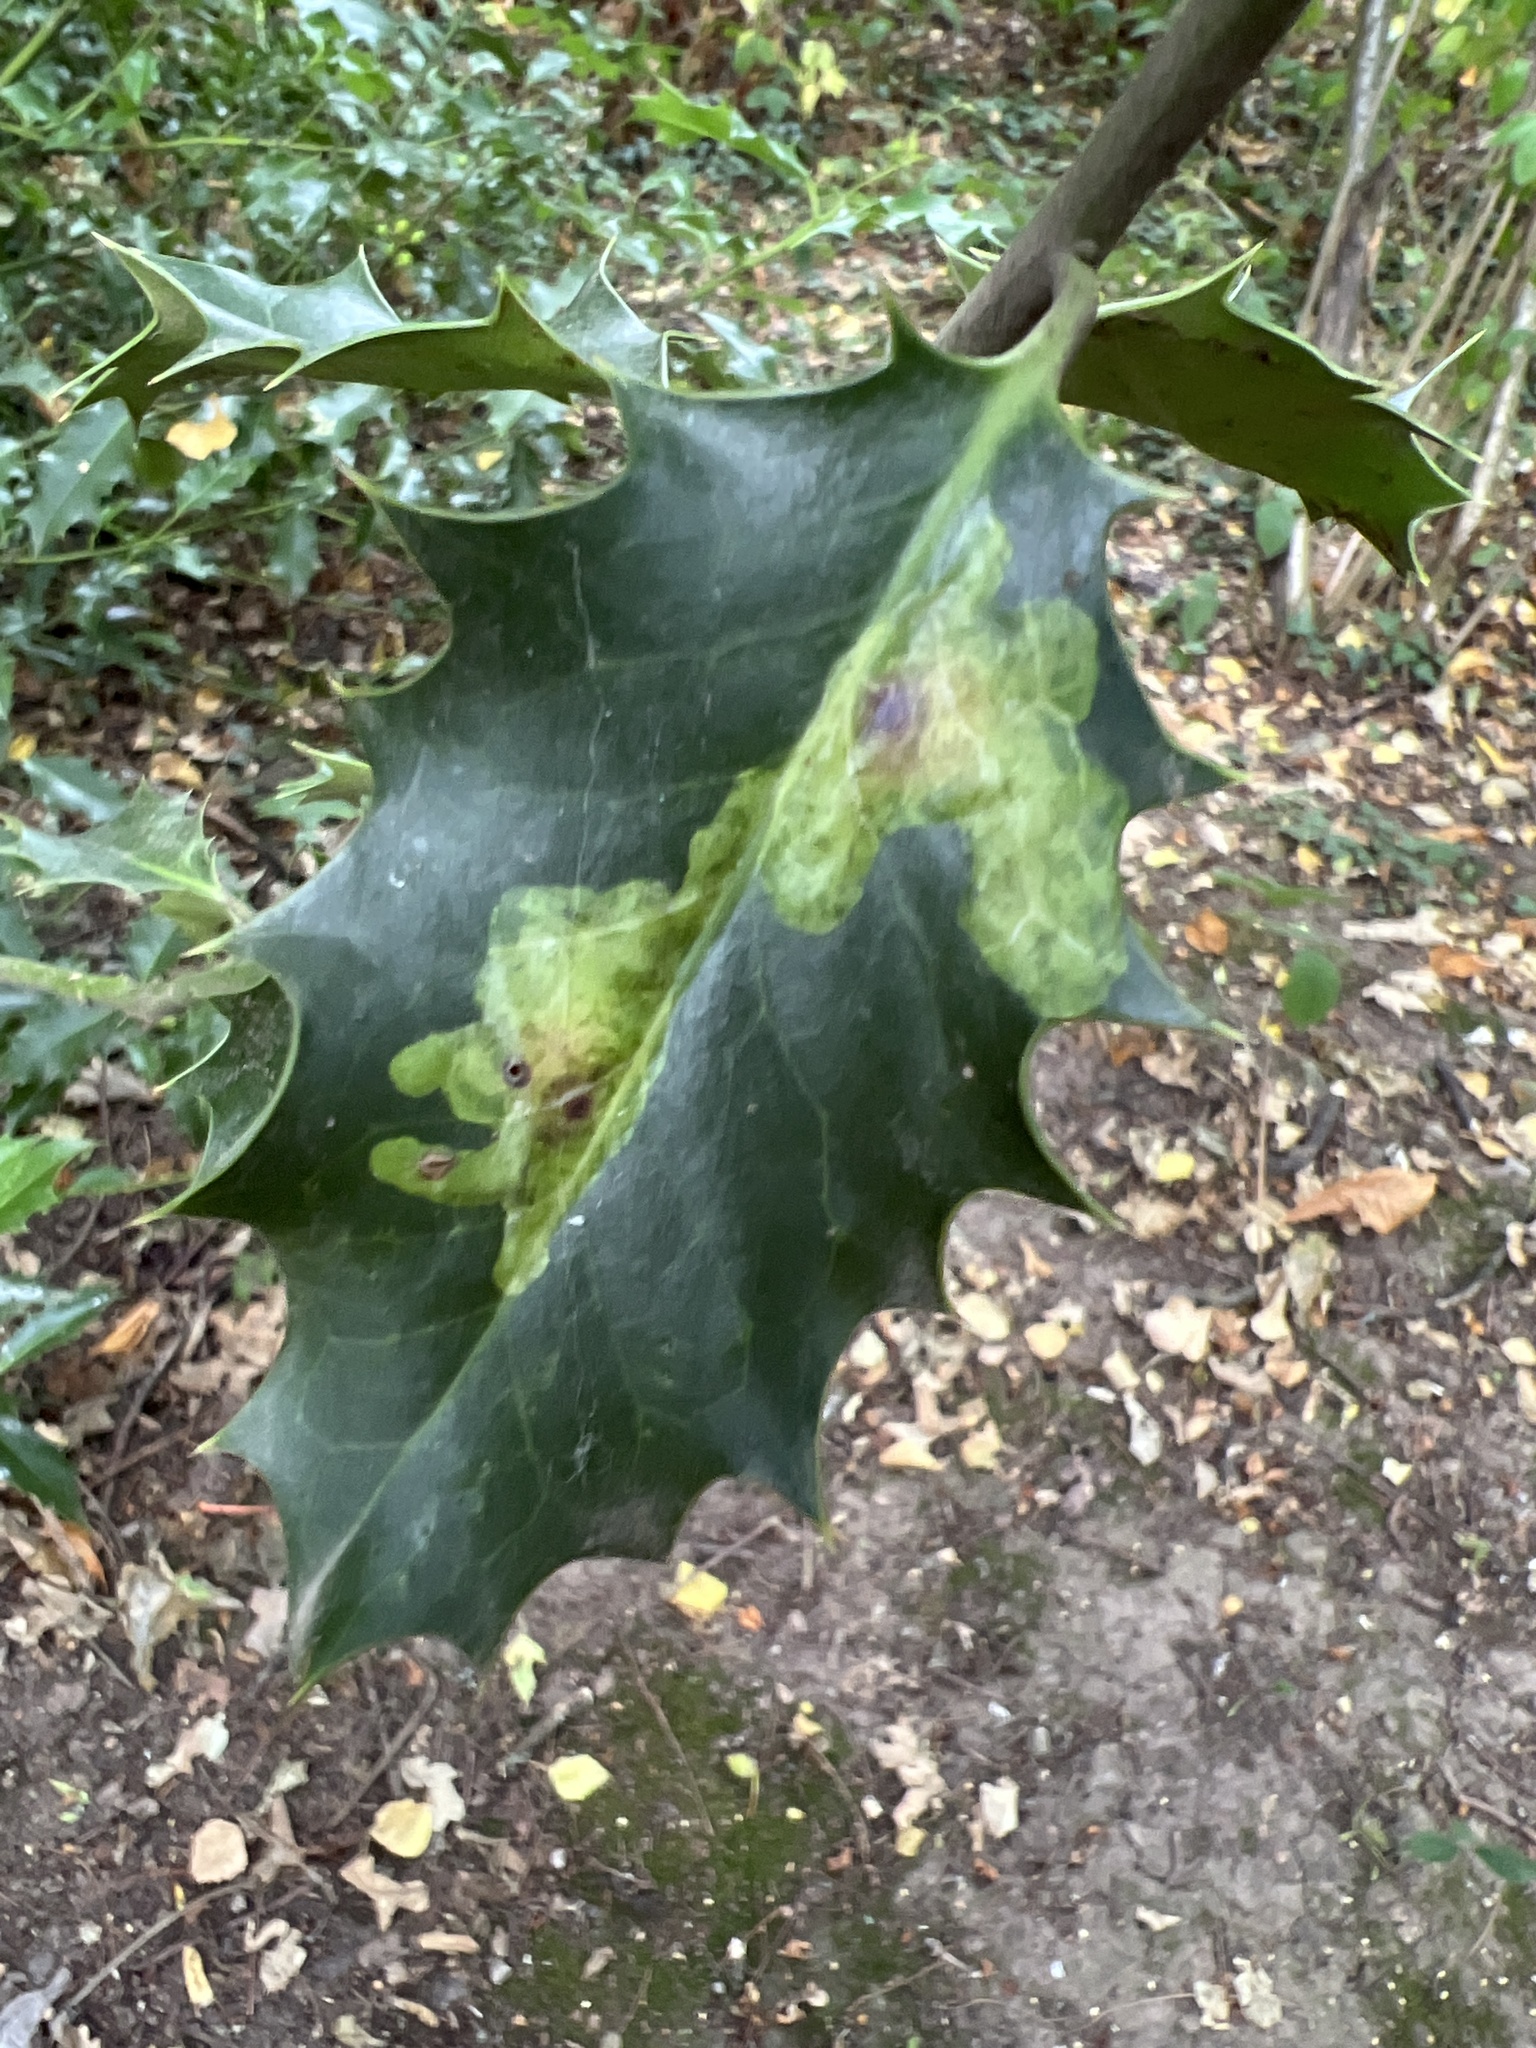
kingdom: Animalia
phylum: Arthropoda
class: Insecta
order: Diptera
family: Agromyzidae
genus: Phytomyza
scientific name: Phytomyza ilicis
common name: Holly leafminer
